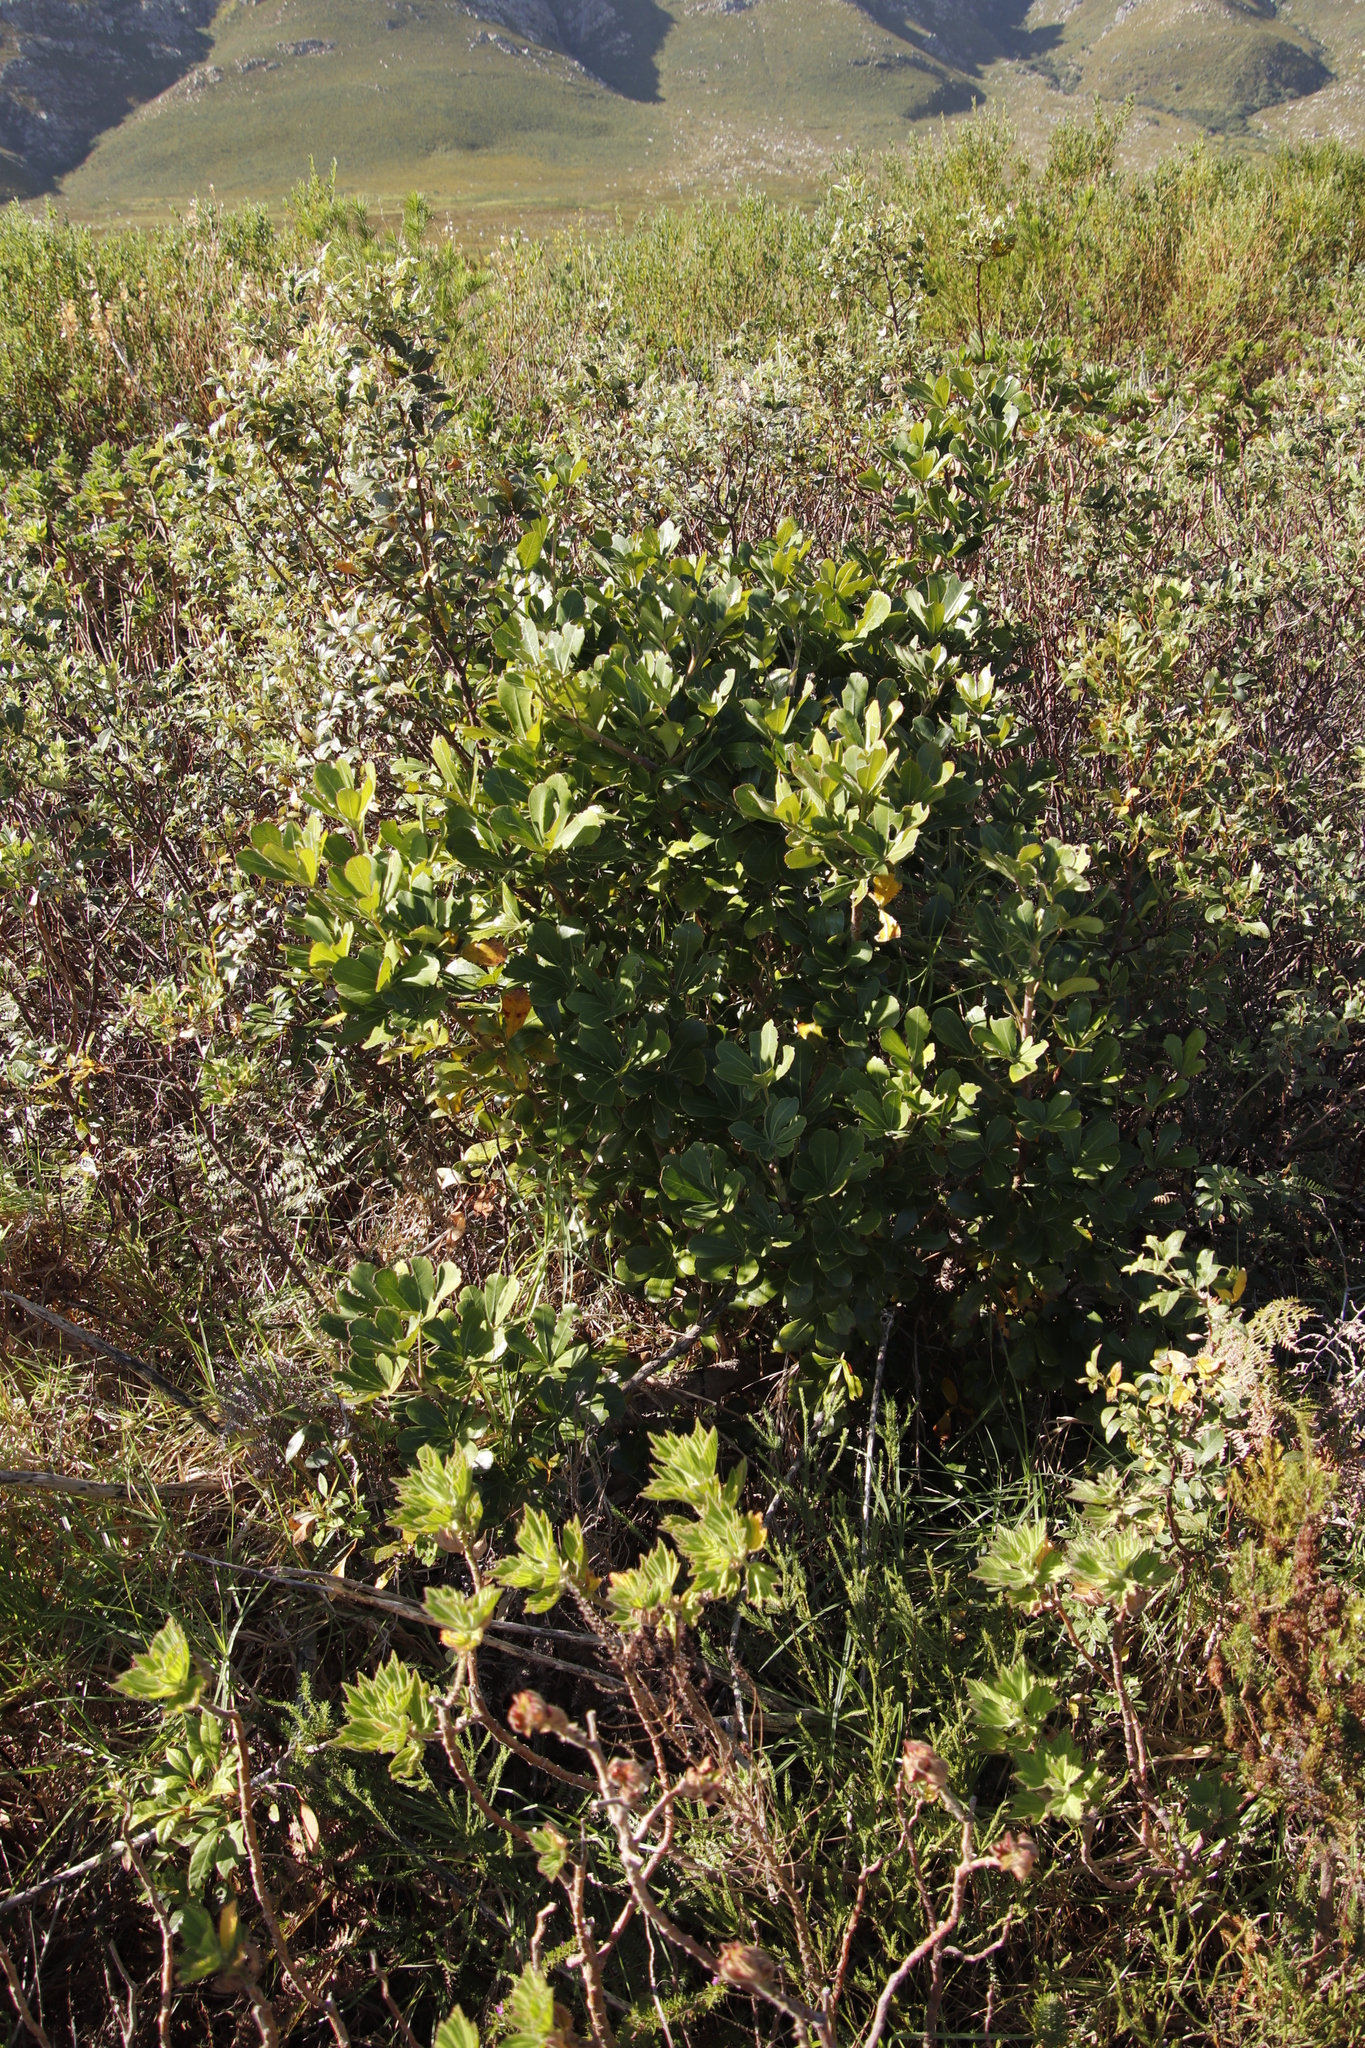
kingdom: Plantae
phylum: Tracheophyta
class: Magnoliopsida
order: Sapindales
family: Anacardiaceae
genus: Searsia
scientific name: Searsia lucida
